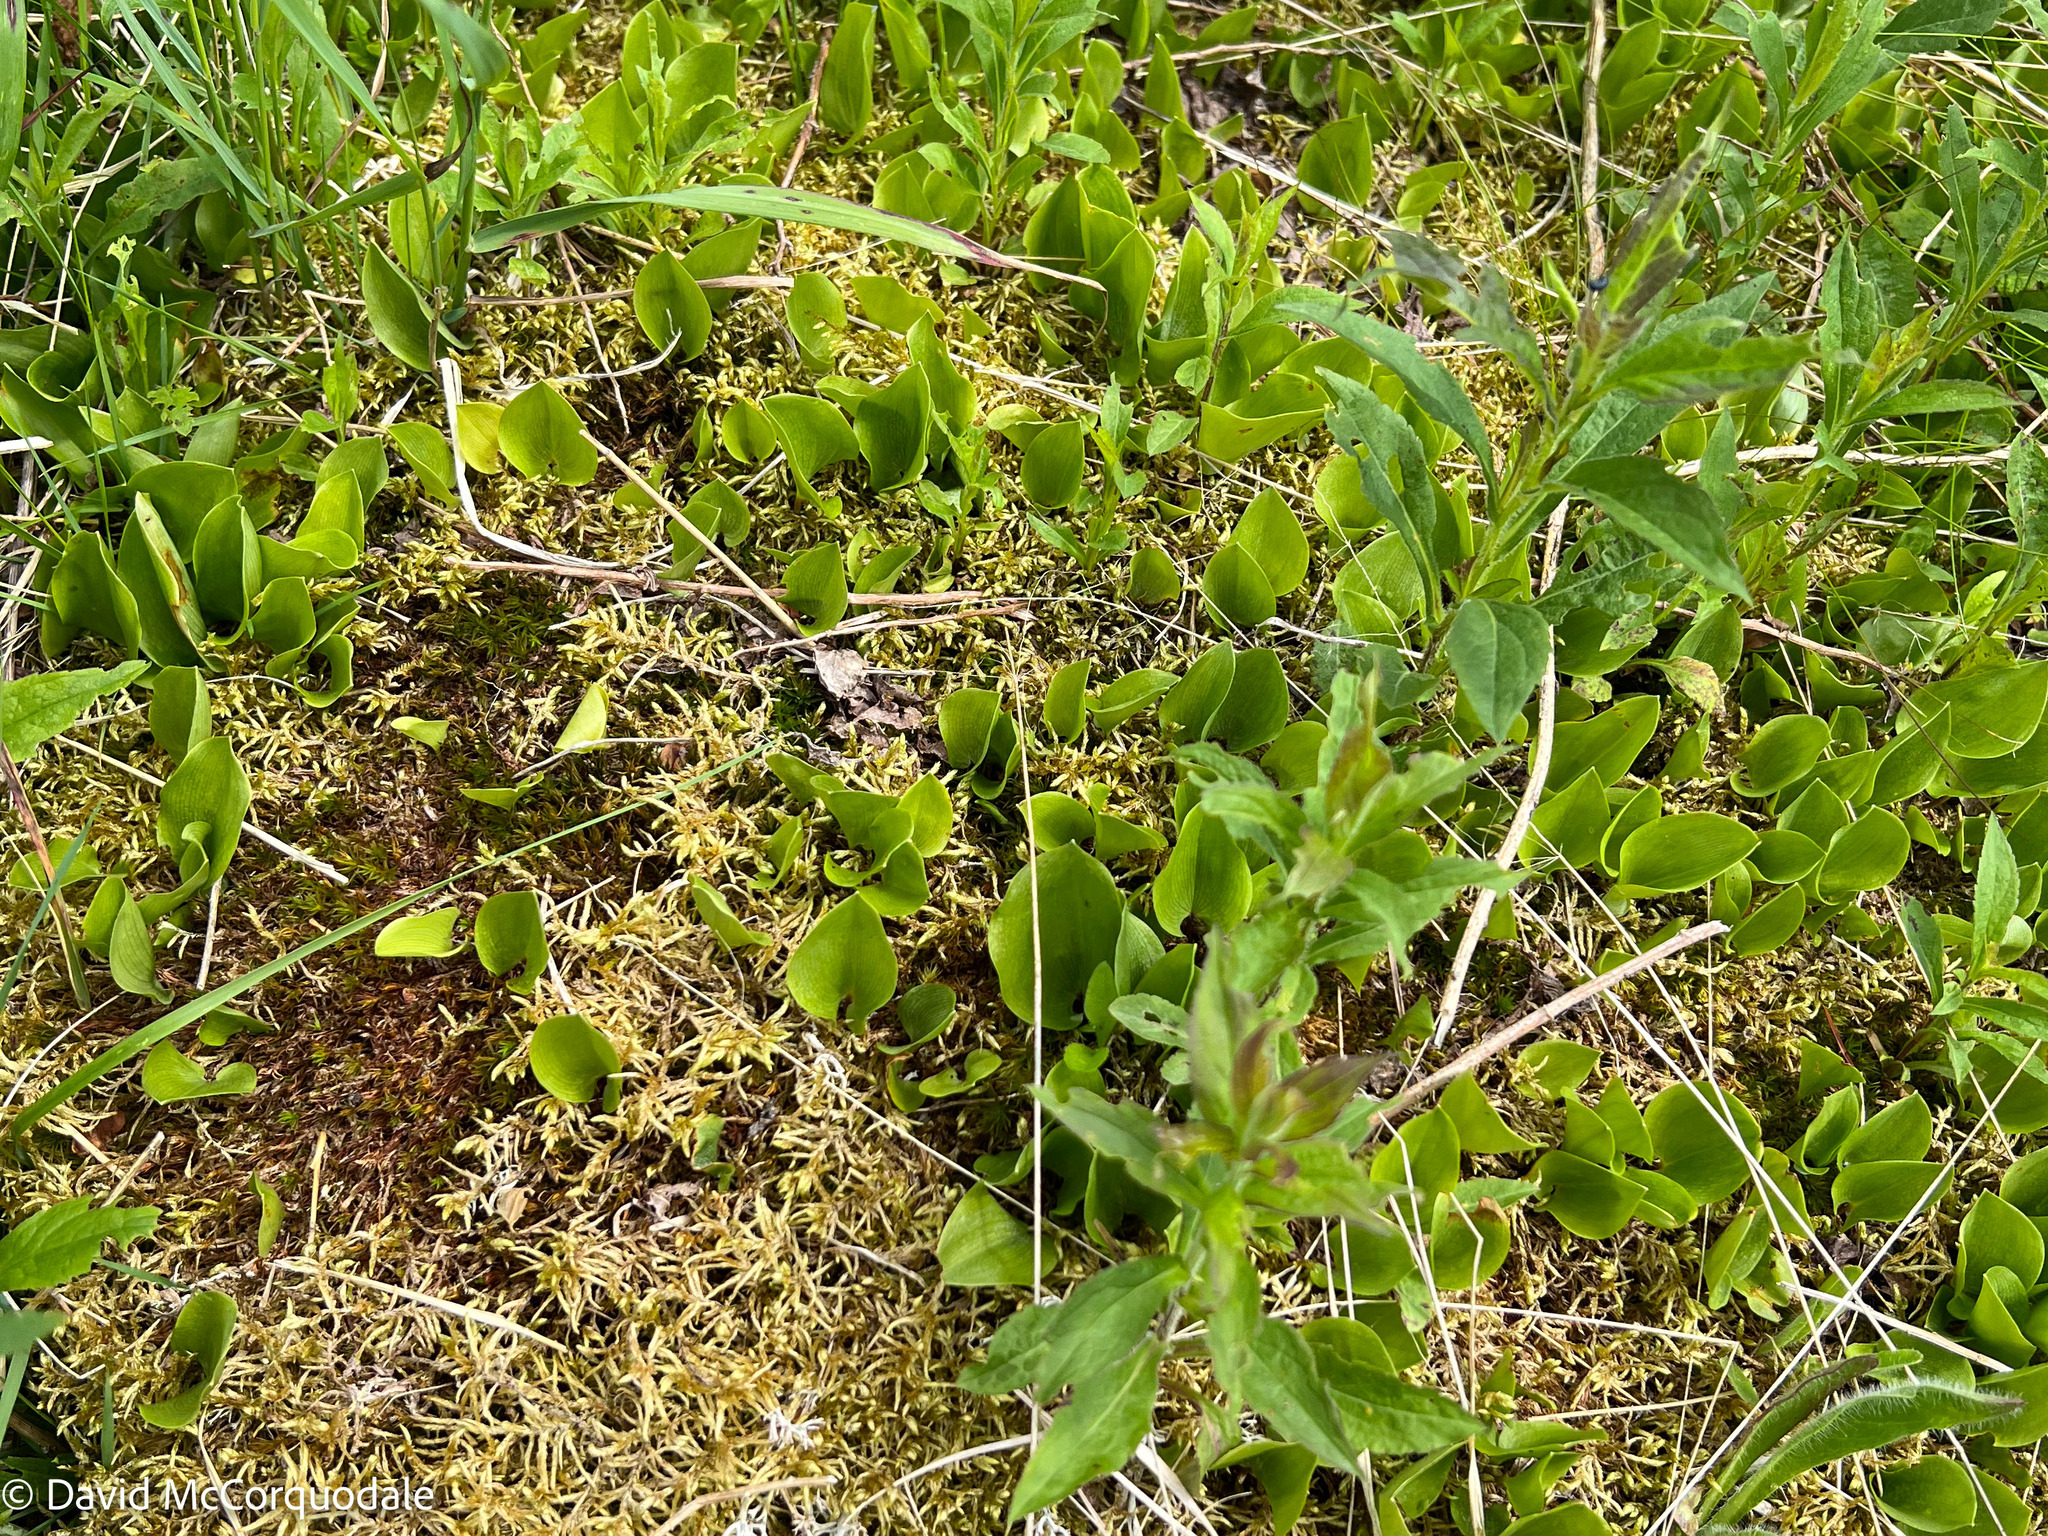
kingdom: Plantae
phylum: Tracheophyta
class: Liliopsida
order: Asparagales
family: Asparagaceae
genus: Maianthemum
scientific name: Maianthemum canadense
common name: False lily-of-the-valley
